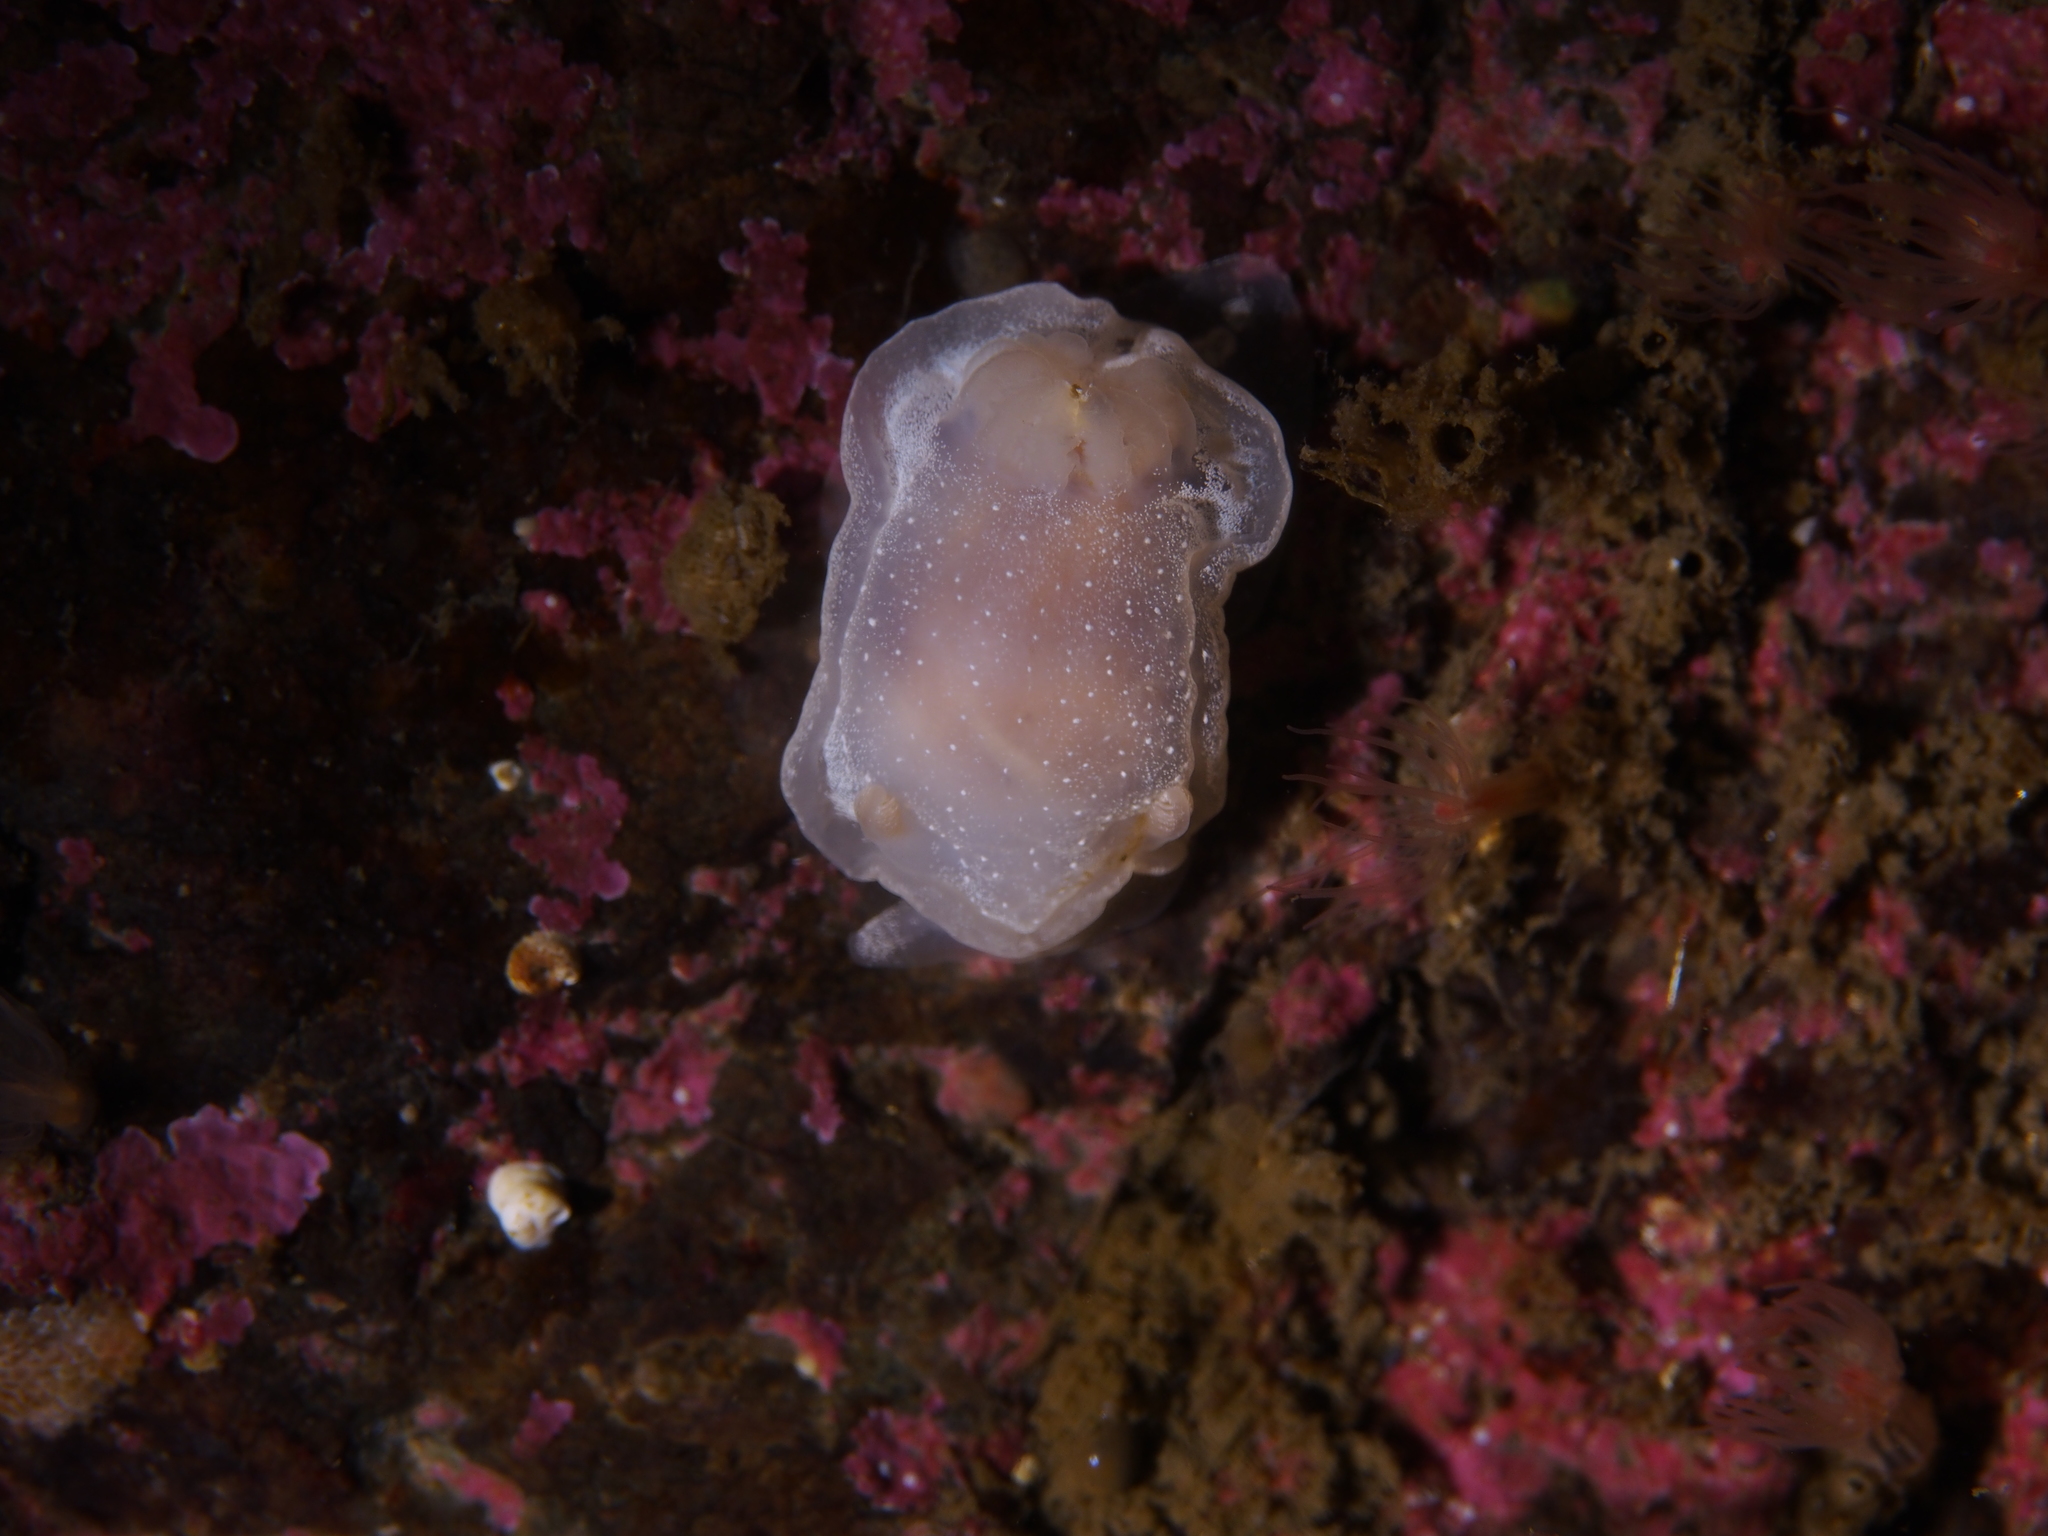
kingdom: Animalia
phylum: Mollusca
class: Gastropoda
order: Nudibranchia
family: Goniodorididae
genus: Okenia
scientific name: Okenia
